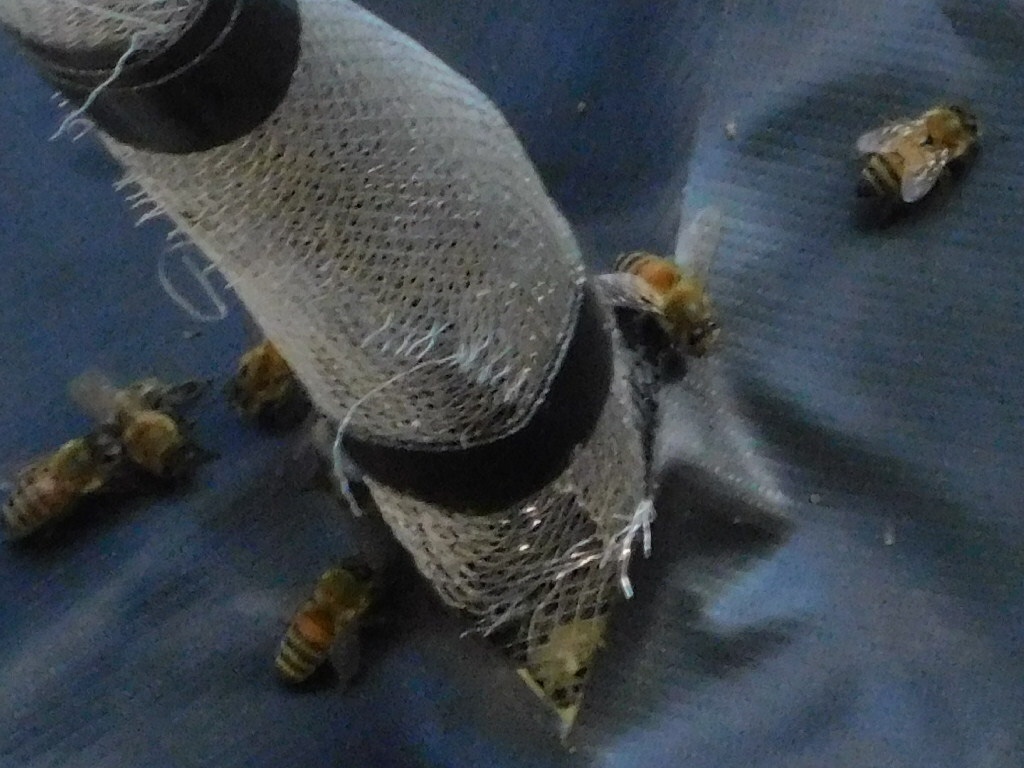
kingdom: Animalia
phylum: Arthropoda
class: Insecta
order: Hymenoptera
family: Apidae
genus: Apis
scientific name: Apis mellifera
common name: Honey bee
